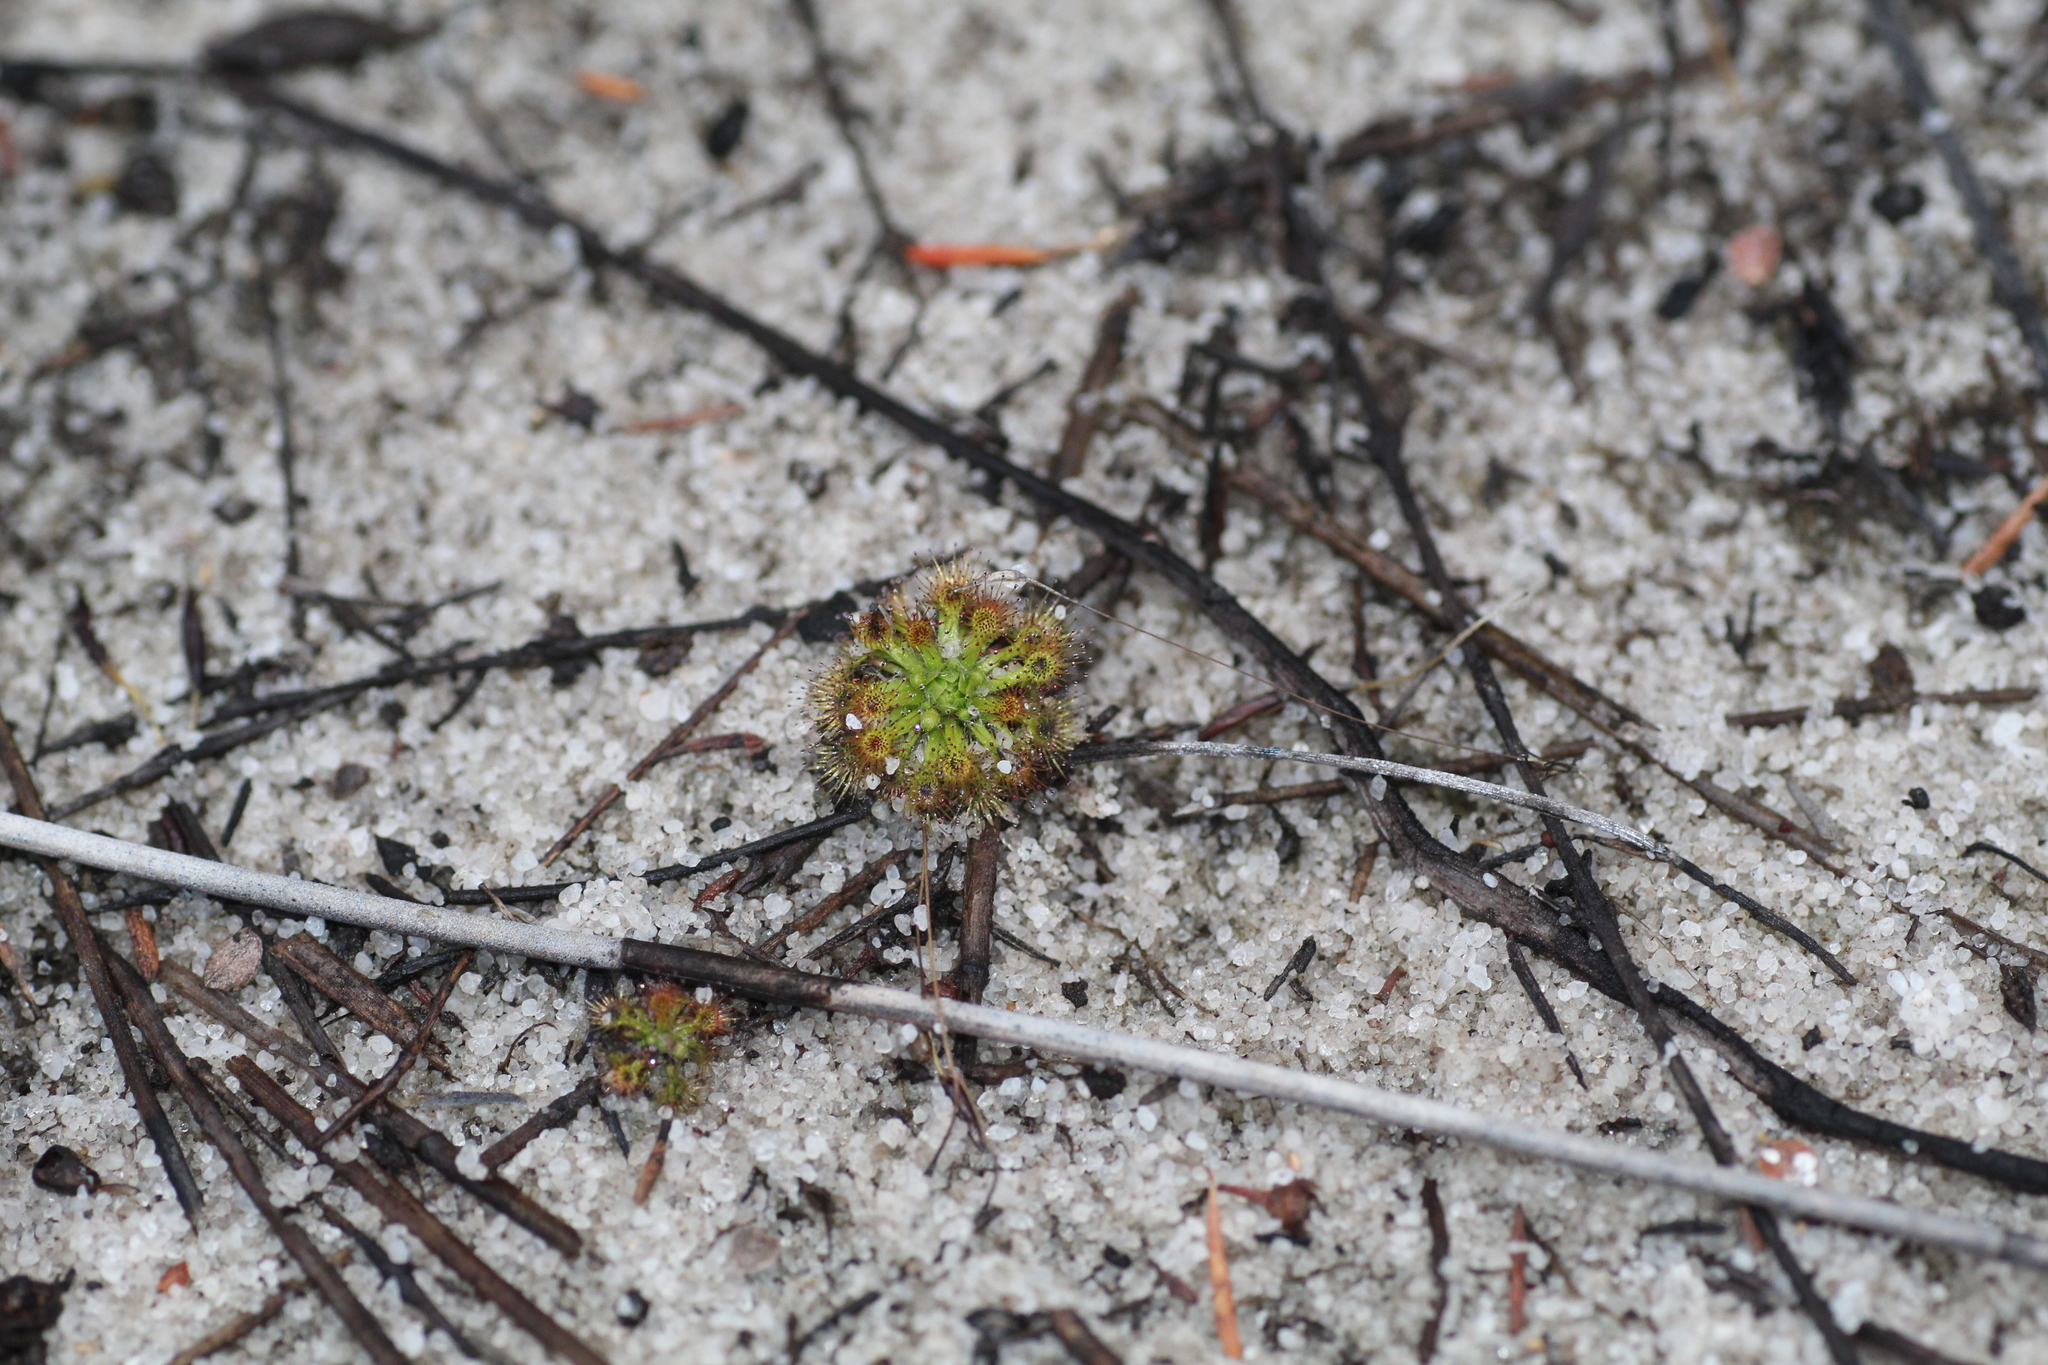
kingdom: Plantae
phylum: Tracheophyta
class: Magnoliopsida
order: Caryophyllales
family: Droseraceae
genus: Drosera
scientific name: Drosera patens
